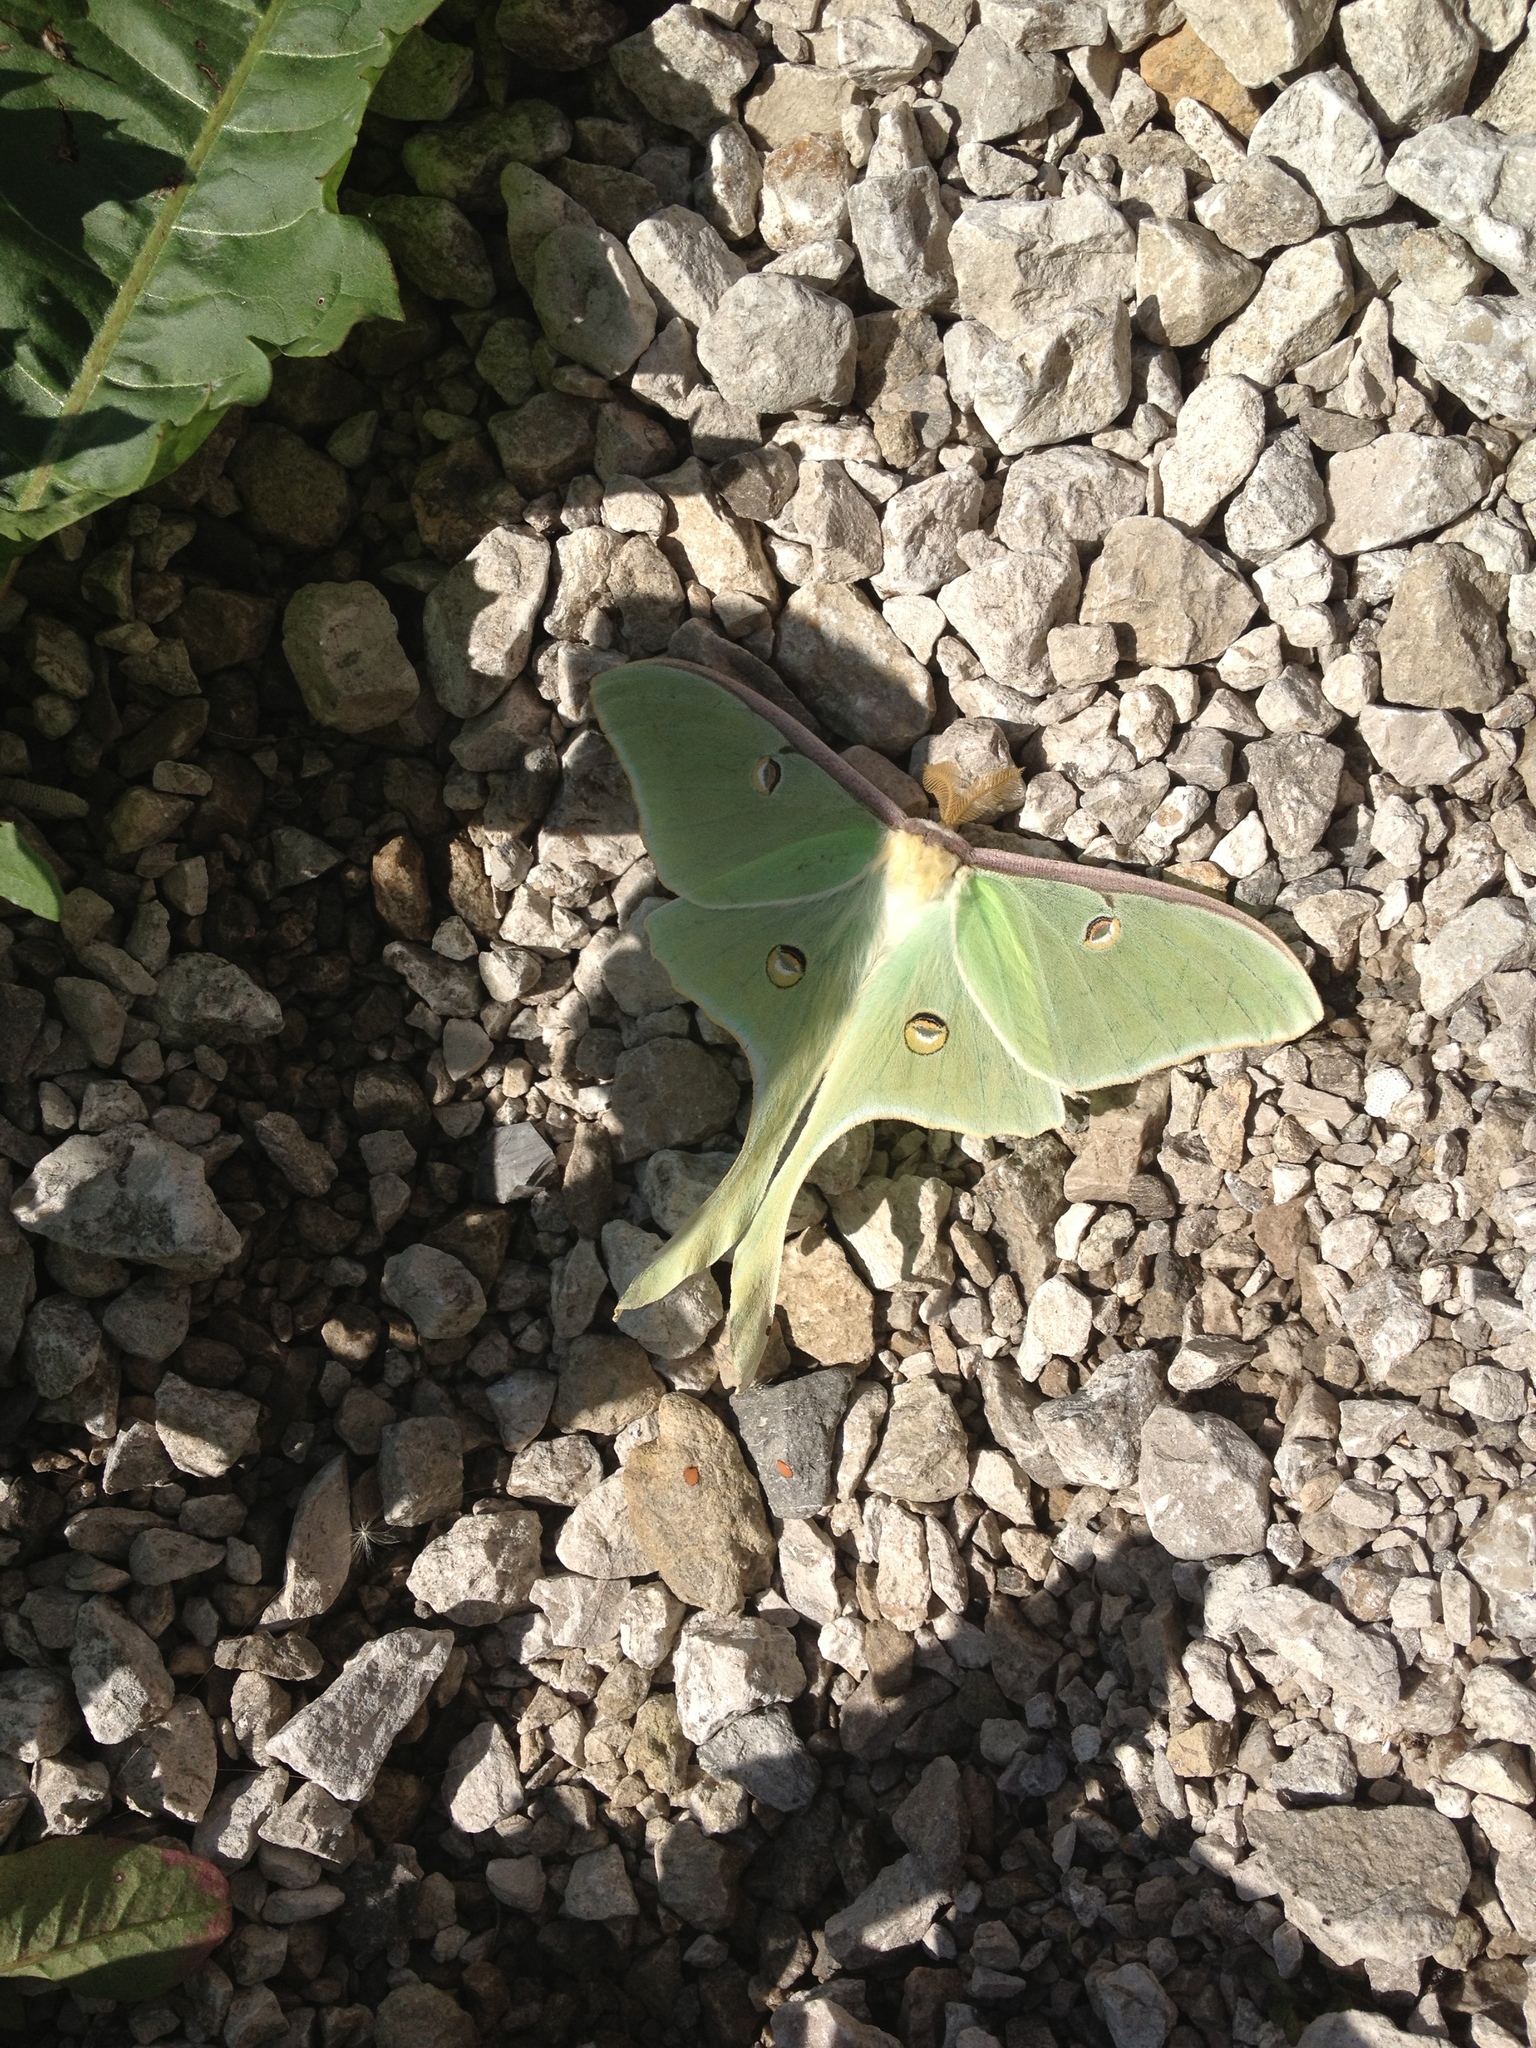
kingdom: Animalia
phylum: Arthropoda
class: Insecta
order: Lepidoptera
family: Saturniidae
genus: Actias
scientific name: Actias luna
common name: Luna moth
